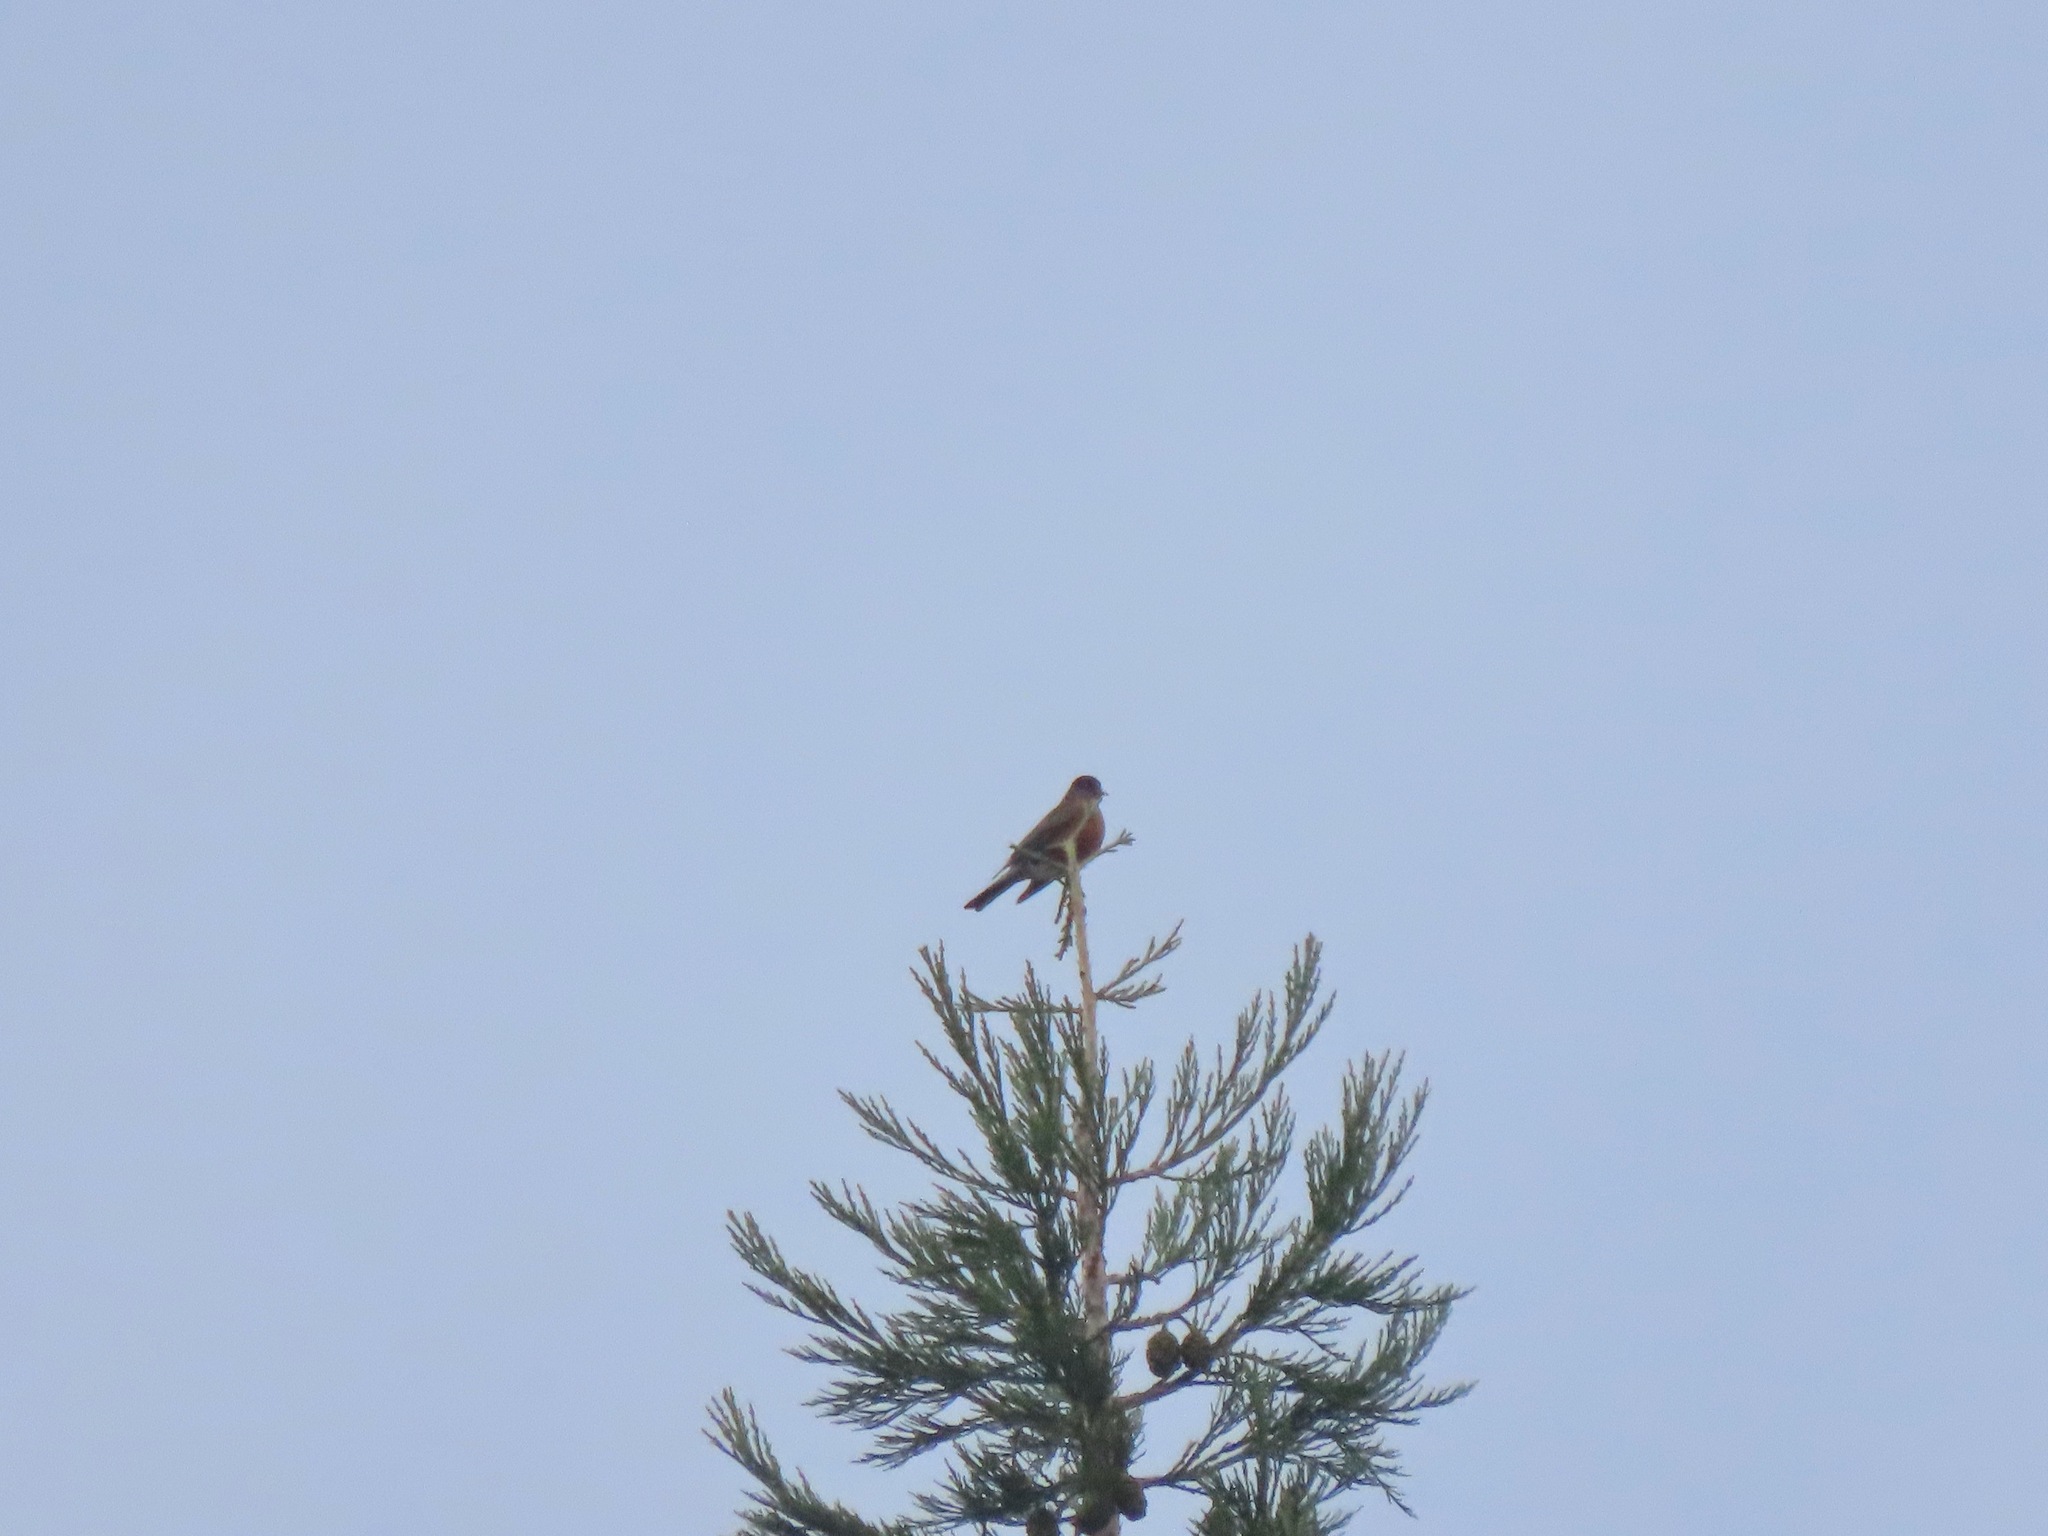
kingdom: Animalia
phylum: Chordata
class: Aves
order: Passeriformes
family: Turdidae
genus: Turdus
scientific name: Turdus migratorius
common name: American robin
